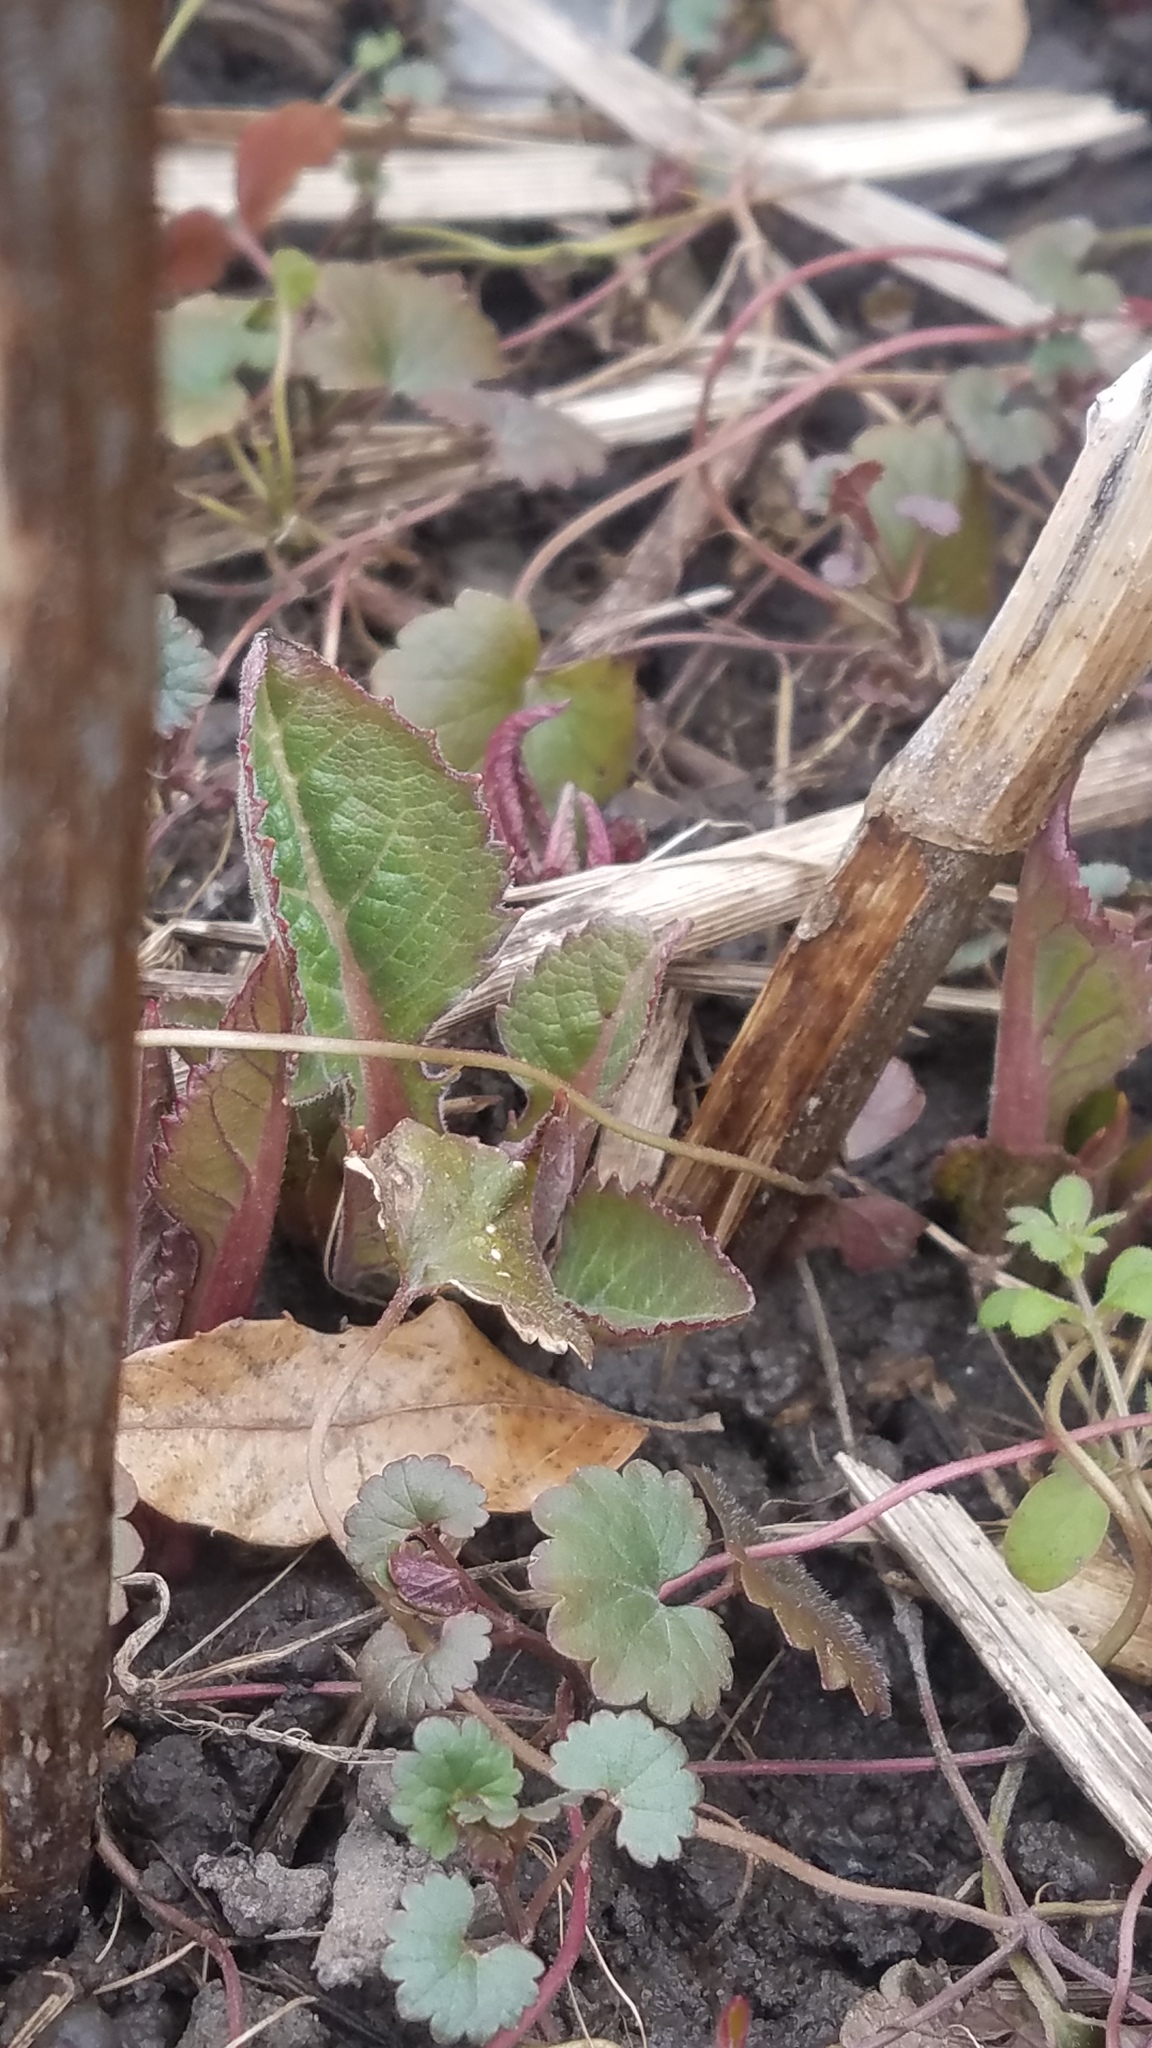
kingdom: Plantae
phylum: Tracheophyta
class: Magnoliopsida
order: Asterales
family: Asteraceae
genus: Silphium
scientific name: Silphium perfoliatum
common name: Cup-plant
